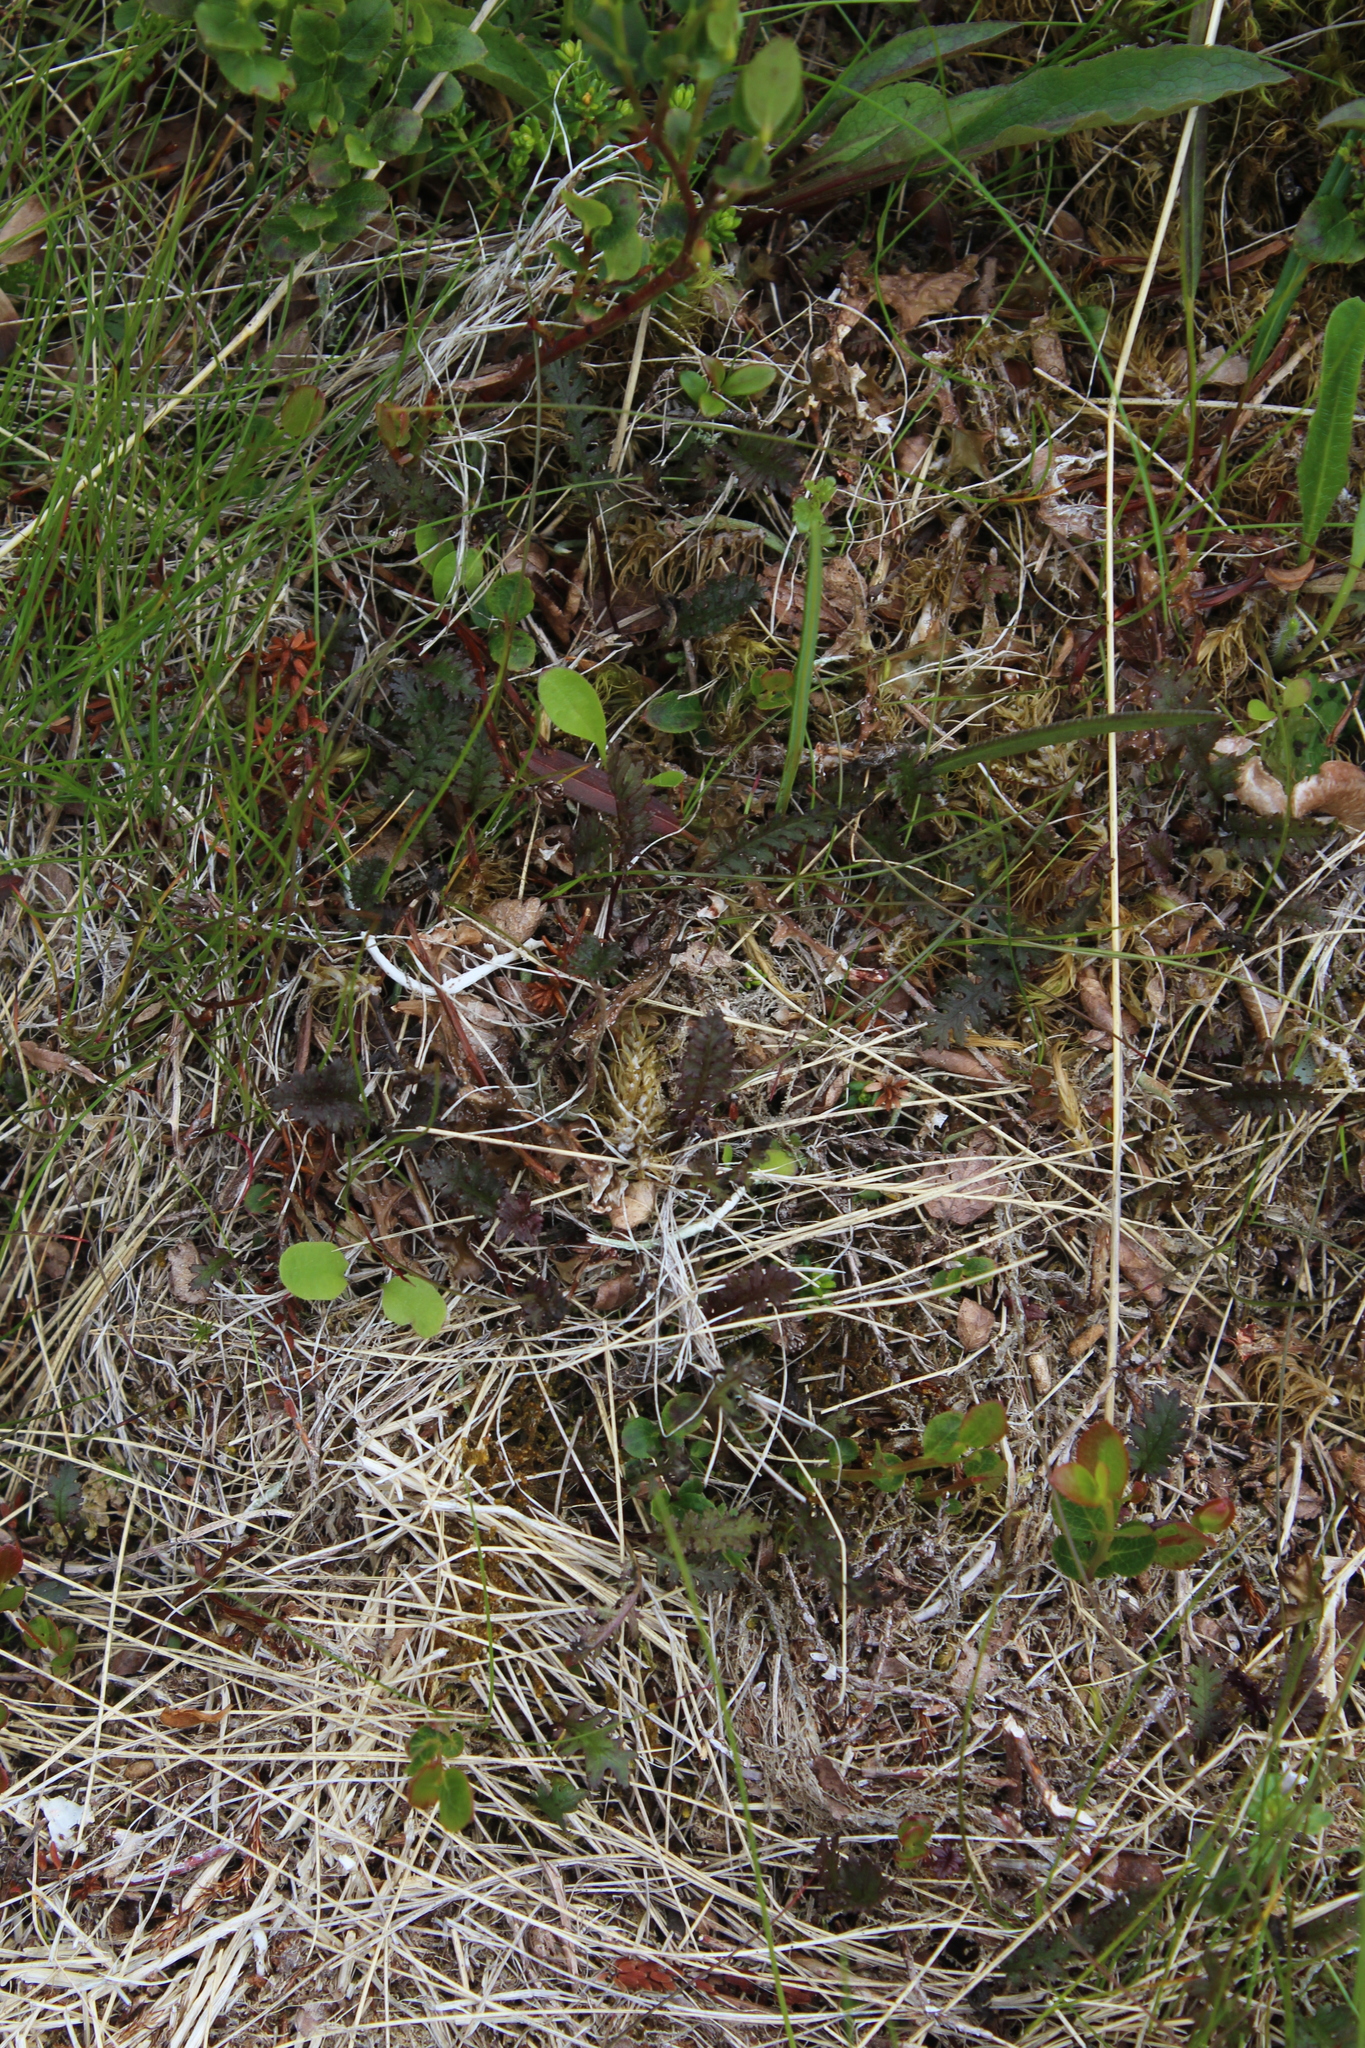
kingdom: Plantae
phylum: Tracheophyta
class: Magnoliopsida
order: Lamiales
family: Orobanchaceae
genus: Pedicularis
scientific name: Pedicularis lapponica
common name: Lapland lousewort
